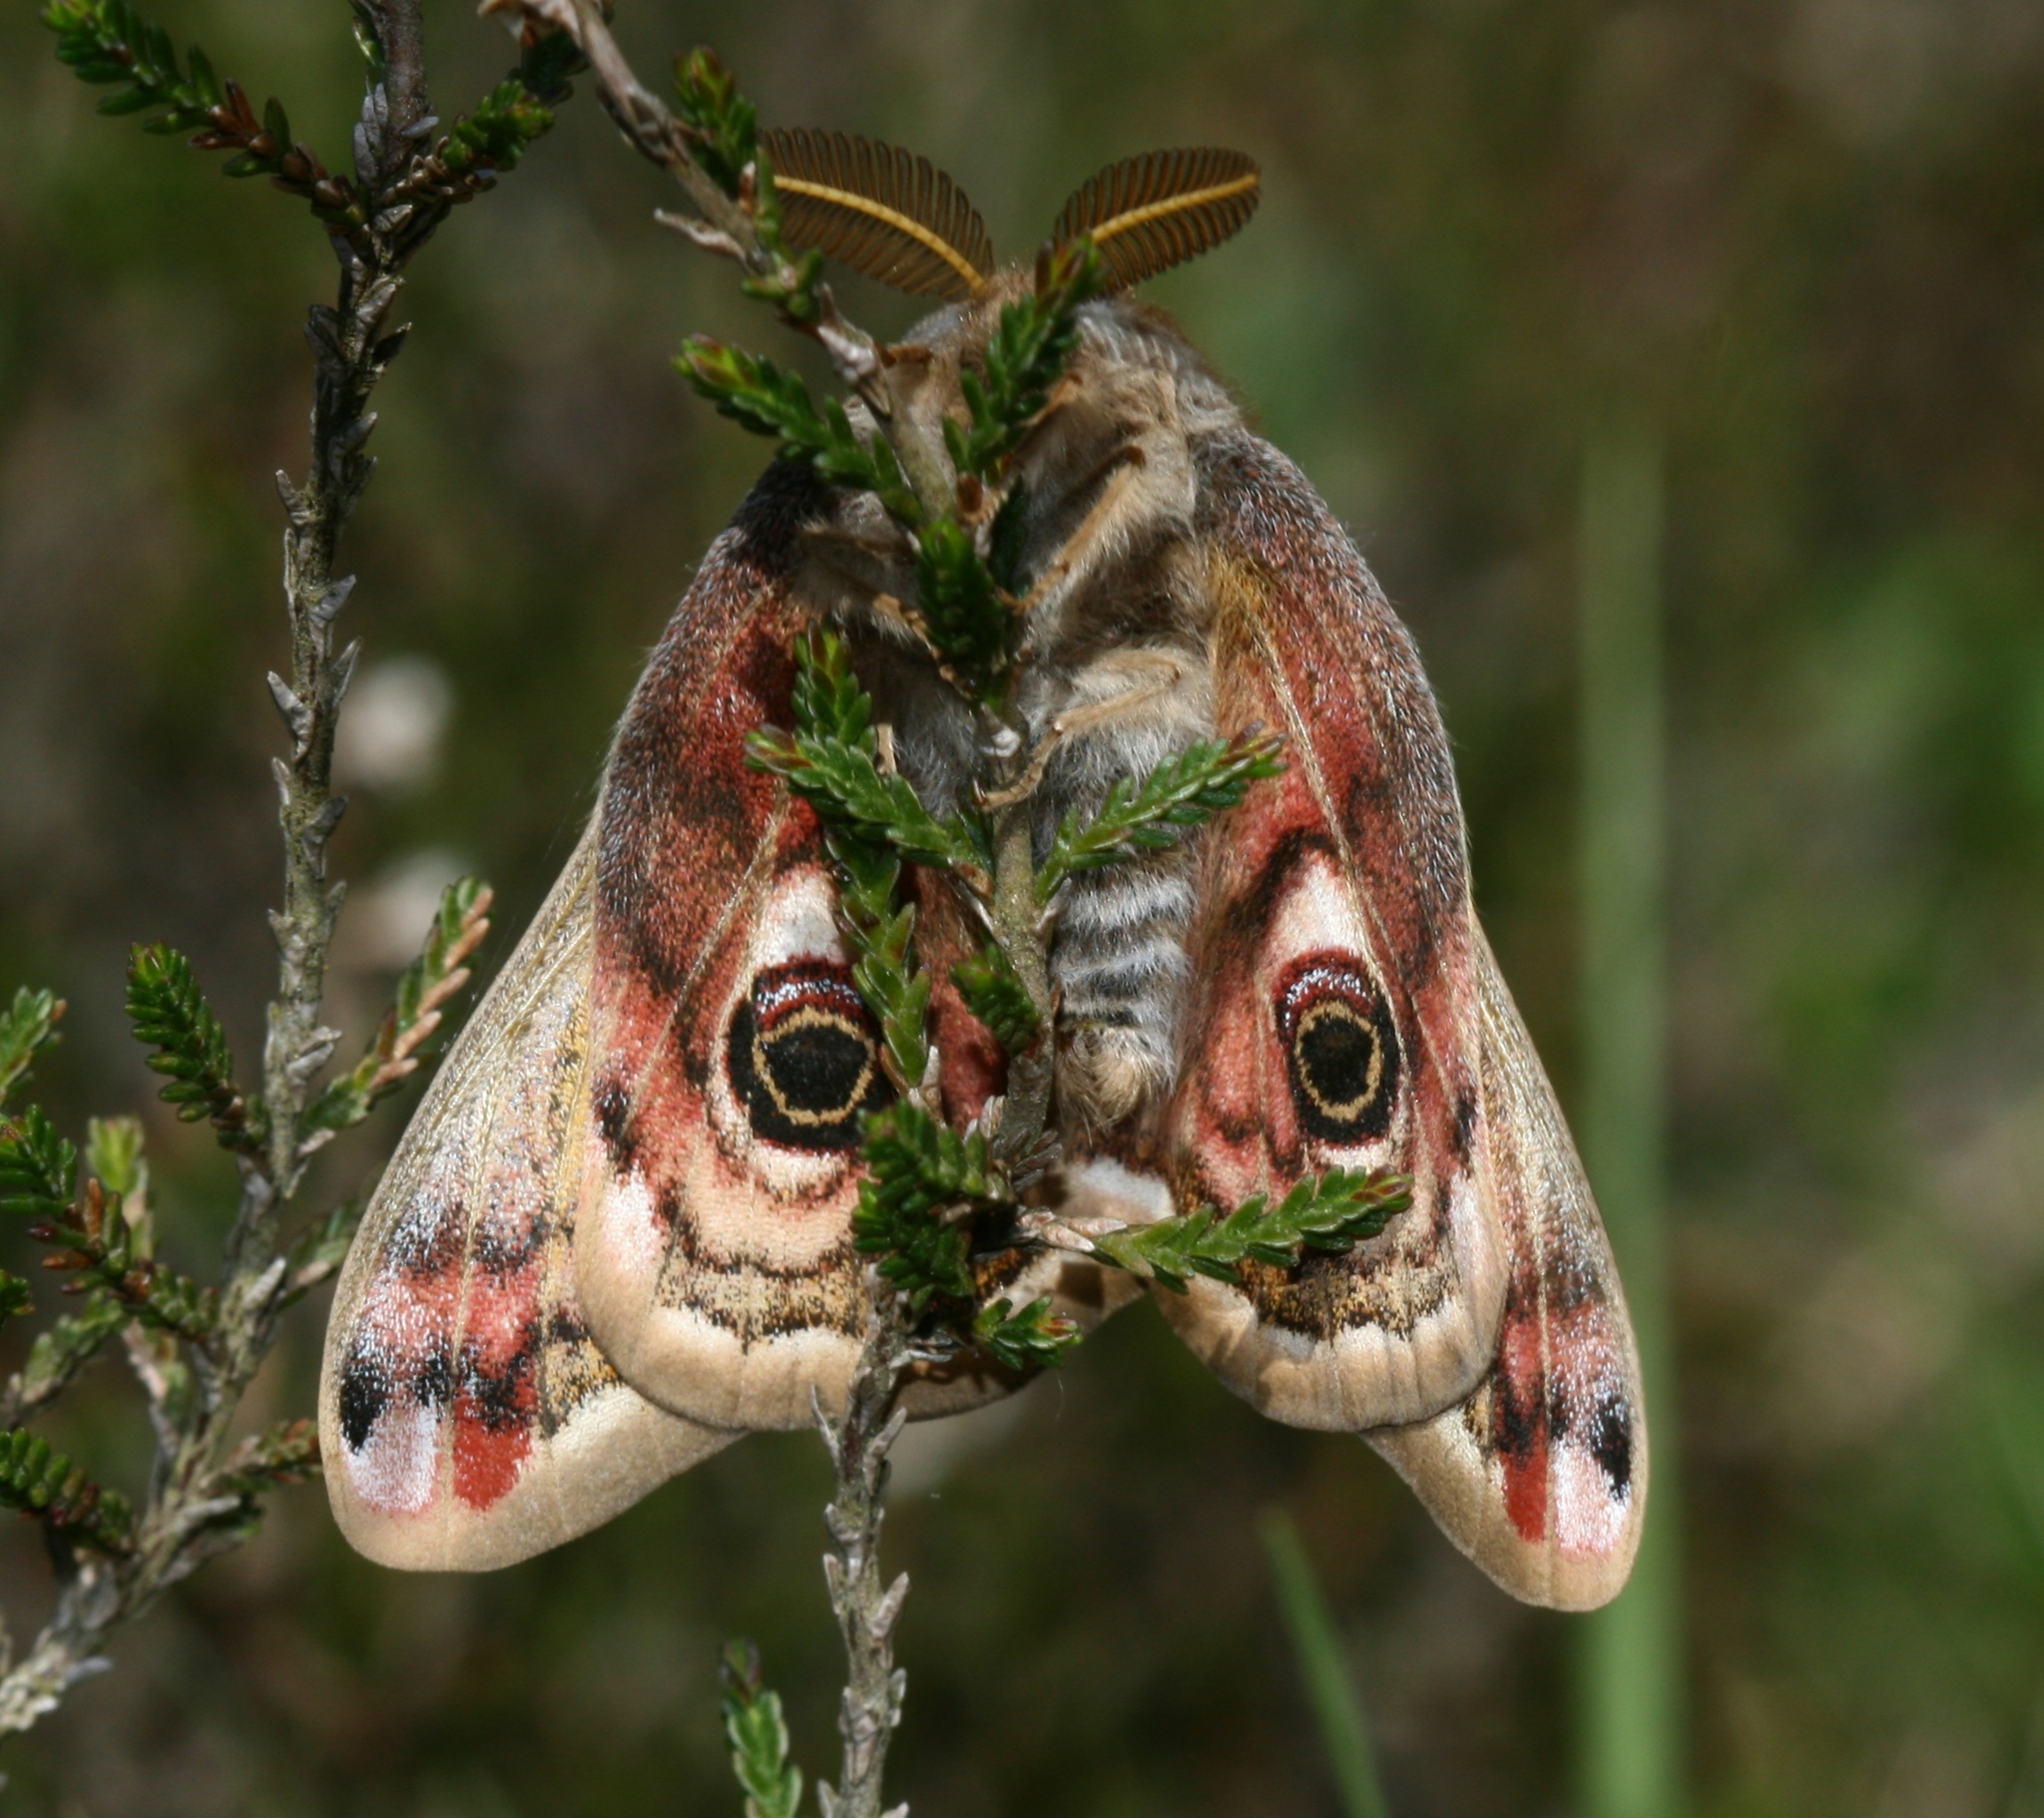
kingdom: Animalia
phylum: Arthropoda
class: Insecta
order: Lepidoptera
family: Saturniidae
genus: Saturnia
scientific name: Saturnia pavonia
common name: Emperor moth
